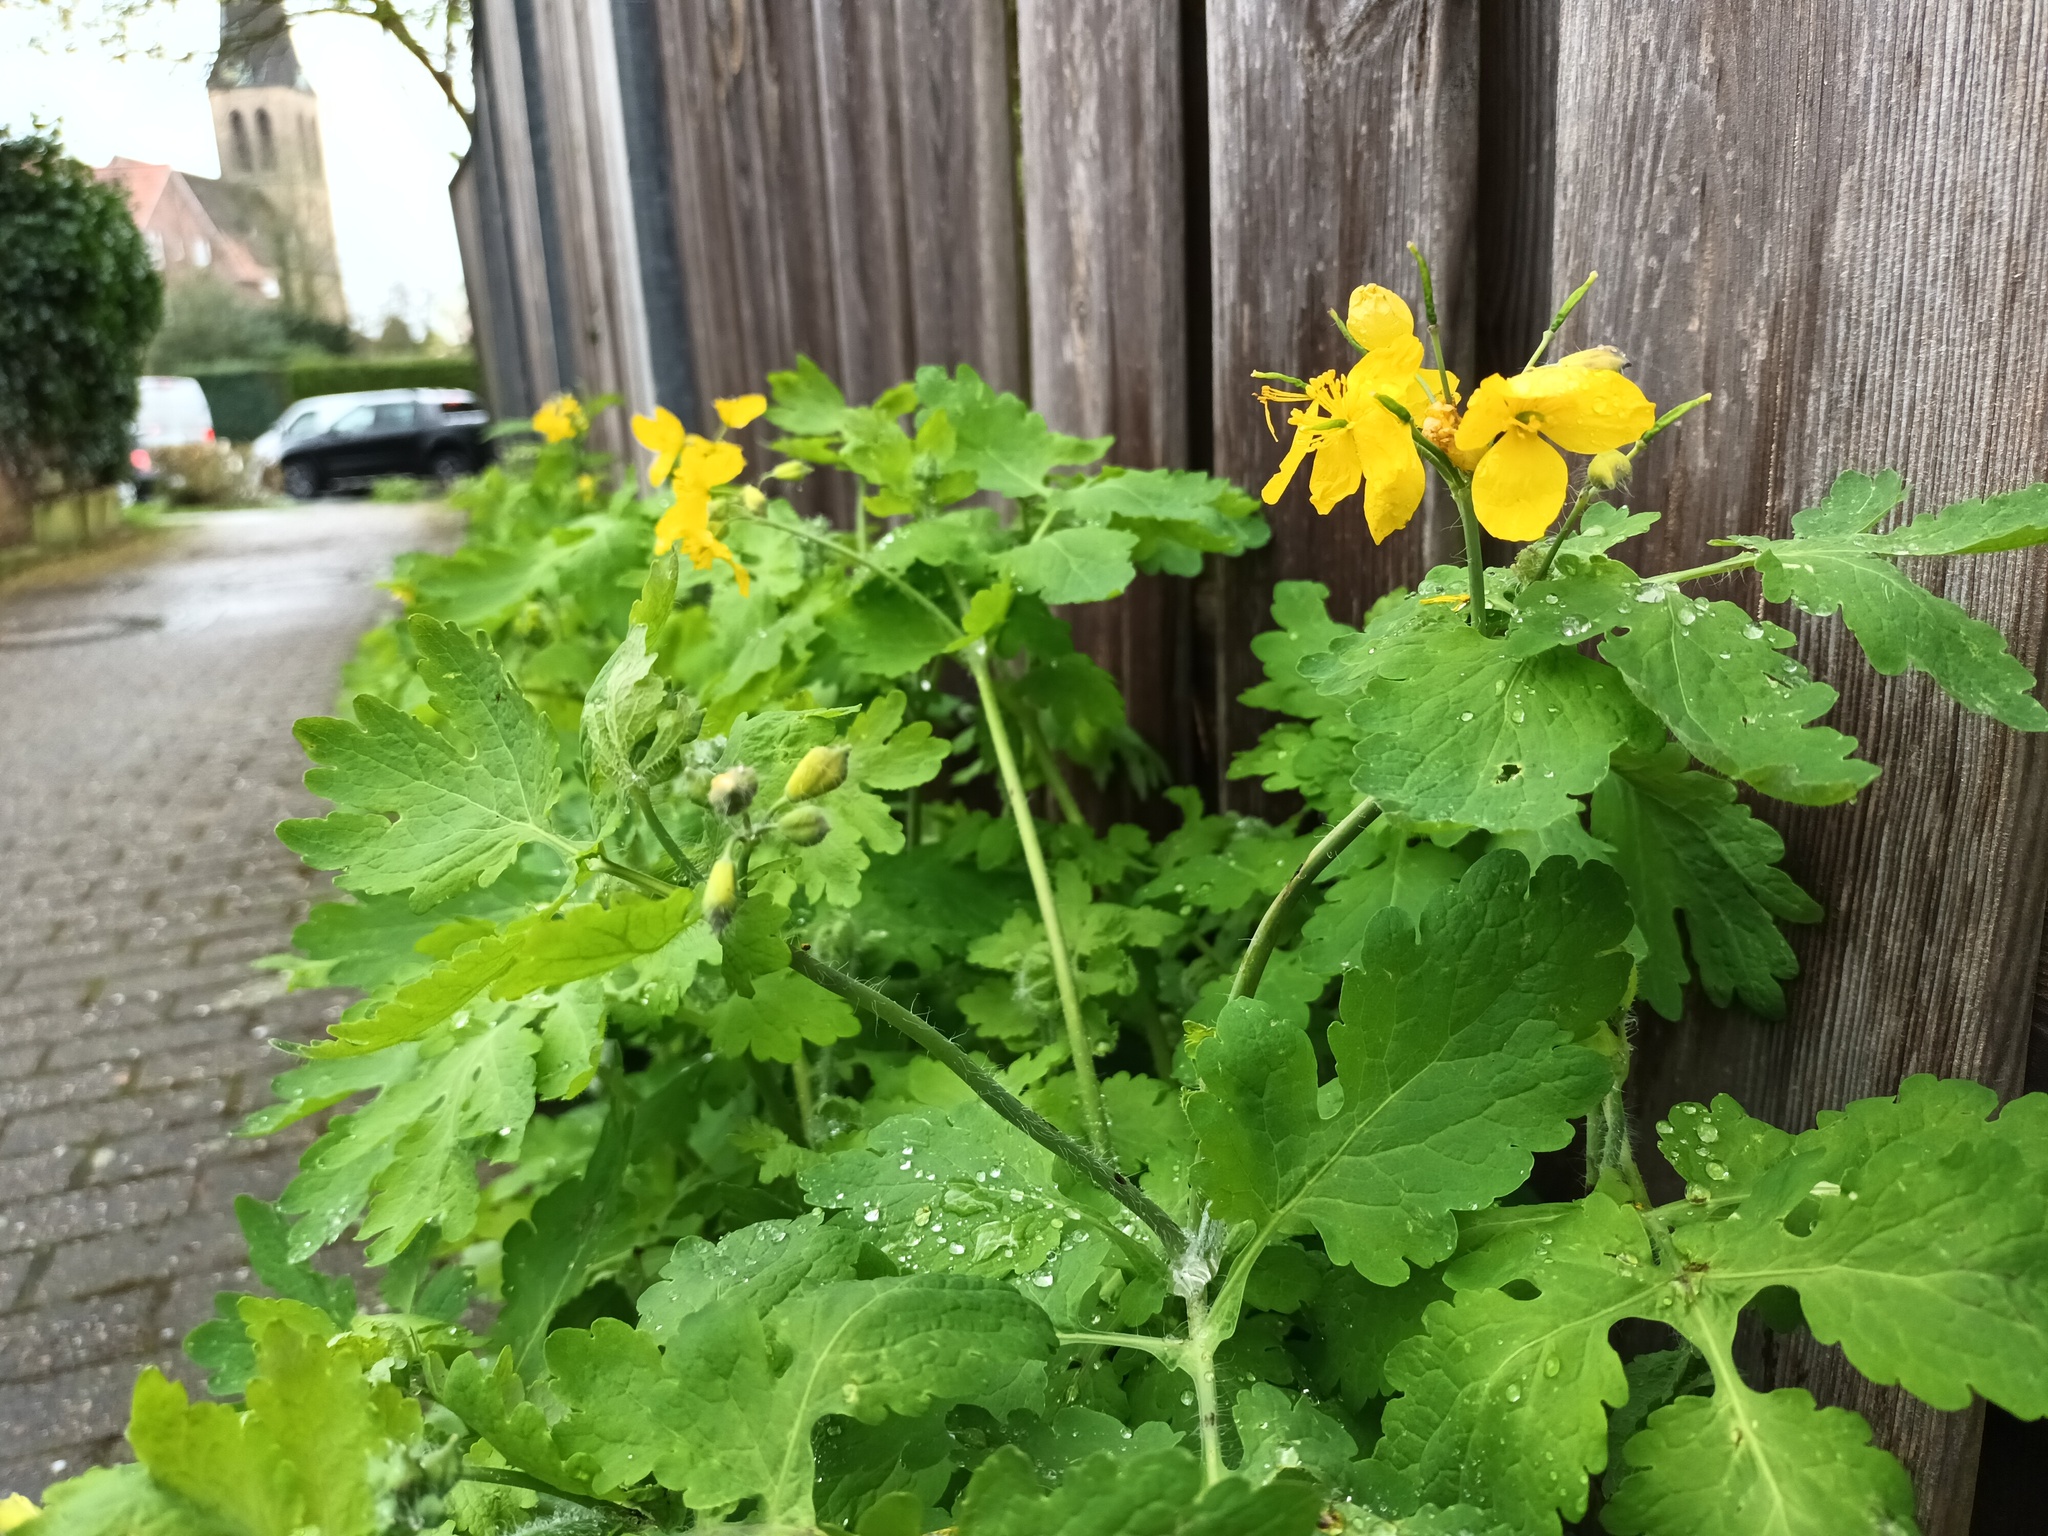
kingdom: Plantae
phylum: Tracheophyta
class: Magnoliopsida
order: Ranunculales
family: Papaveraceae
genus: Chelidonium
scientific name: Chelidonium majus
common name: Greater celandine
